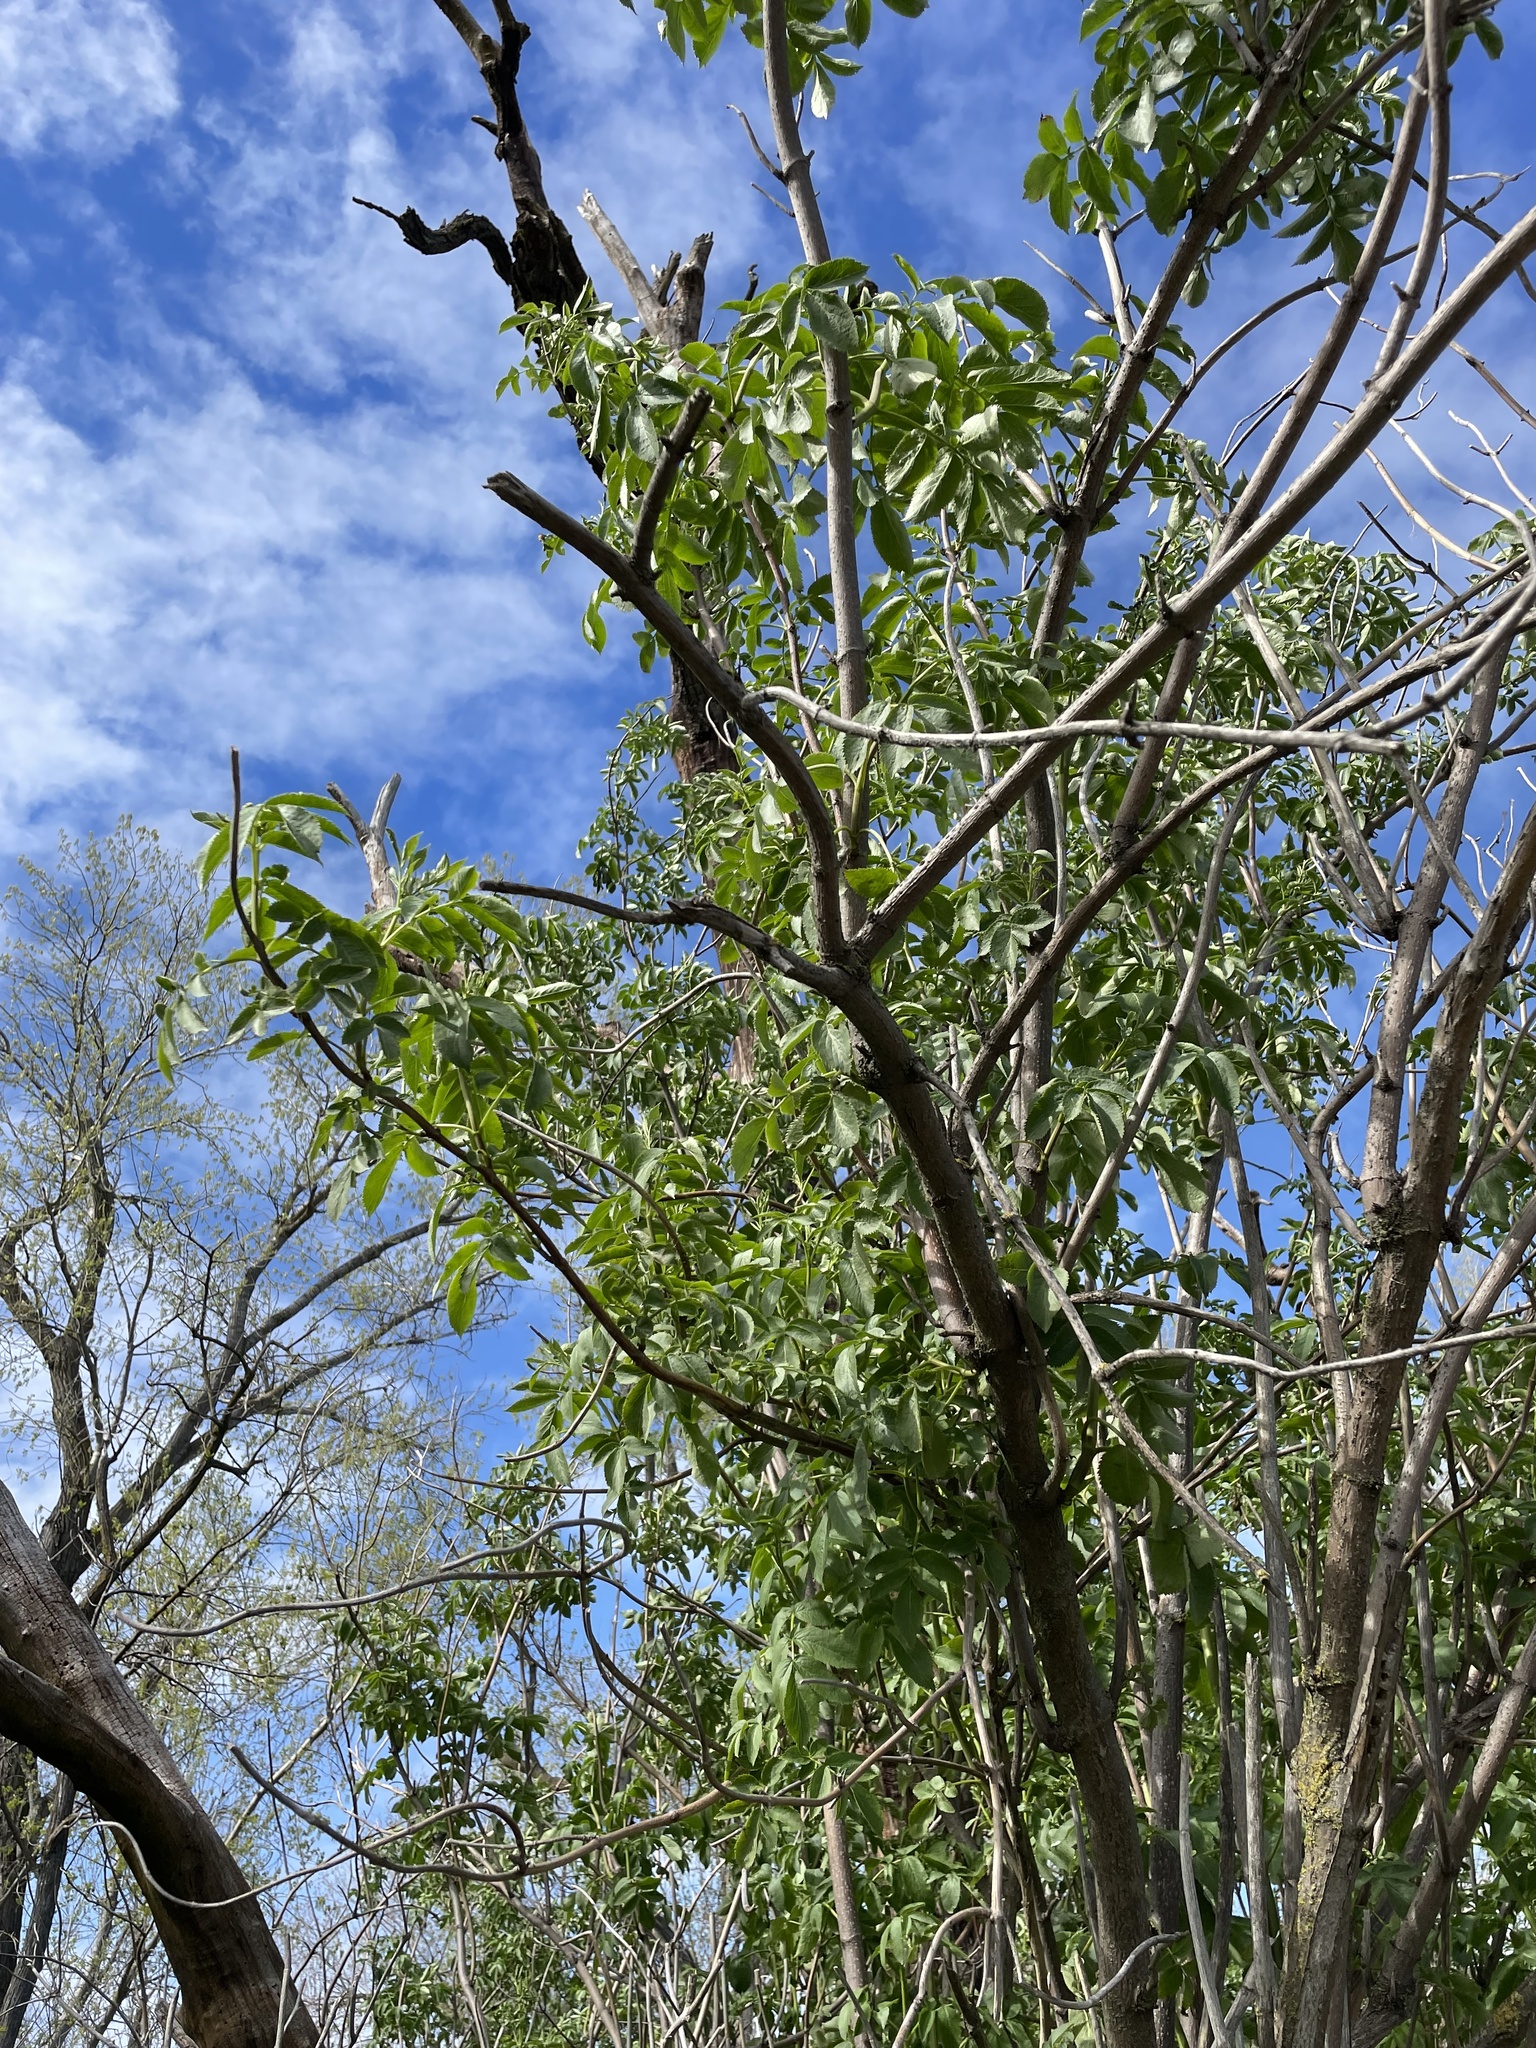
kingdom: Plantae
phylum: Tracheophyta
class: Magnoliopsida
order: Dipsacales
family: Viburnaceae
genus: Sambucus
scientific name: Sambucus cerulea
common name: Blue elder
